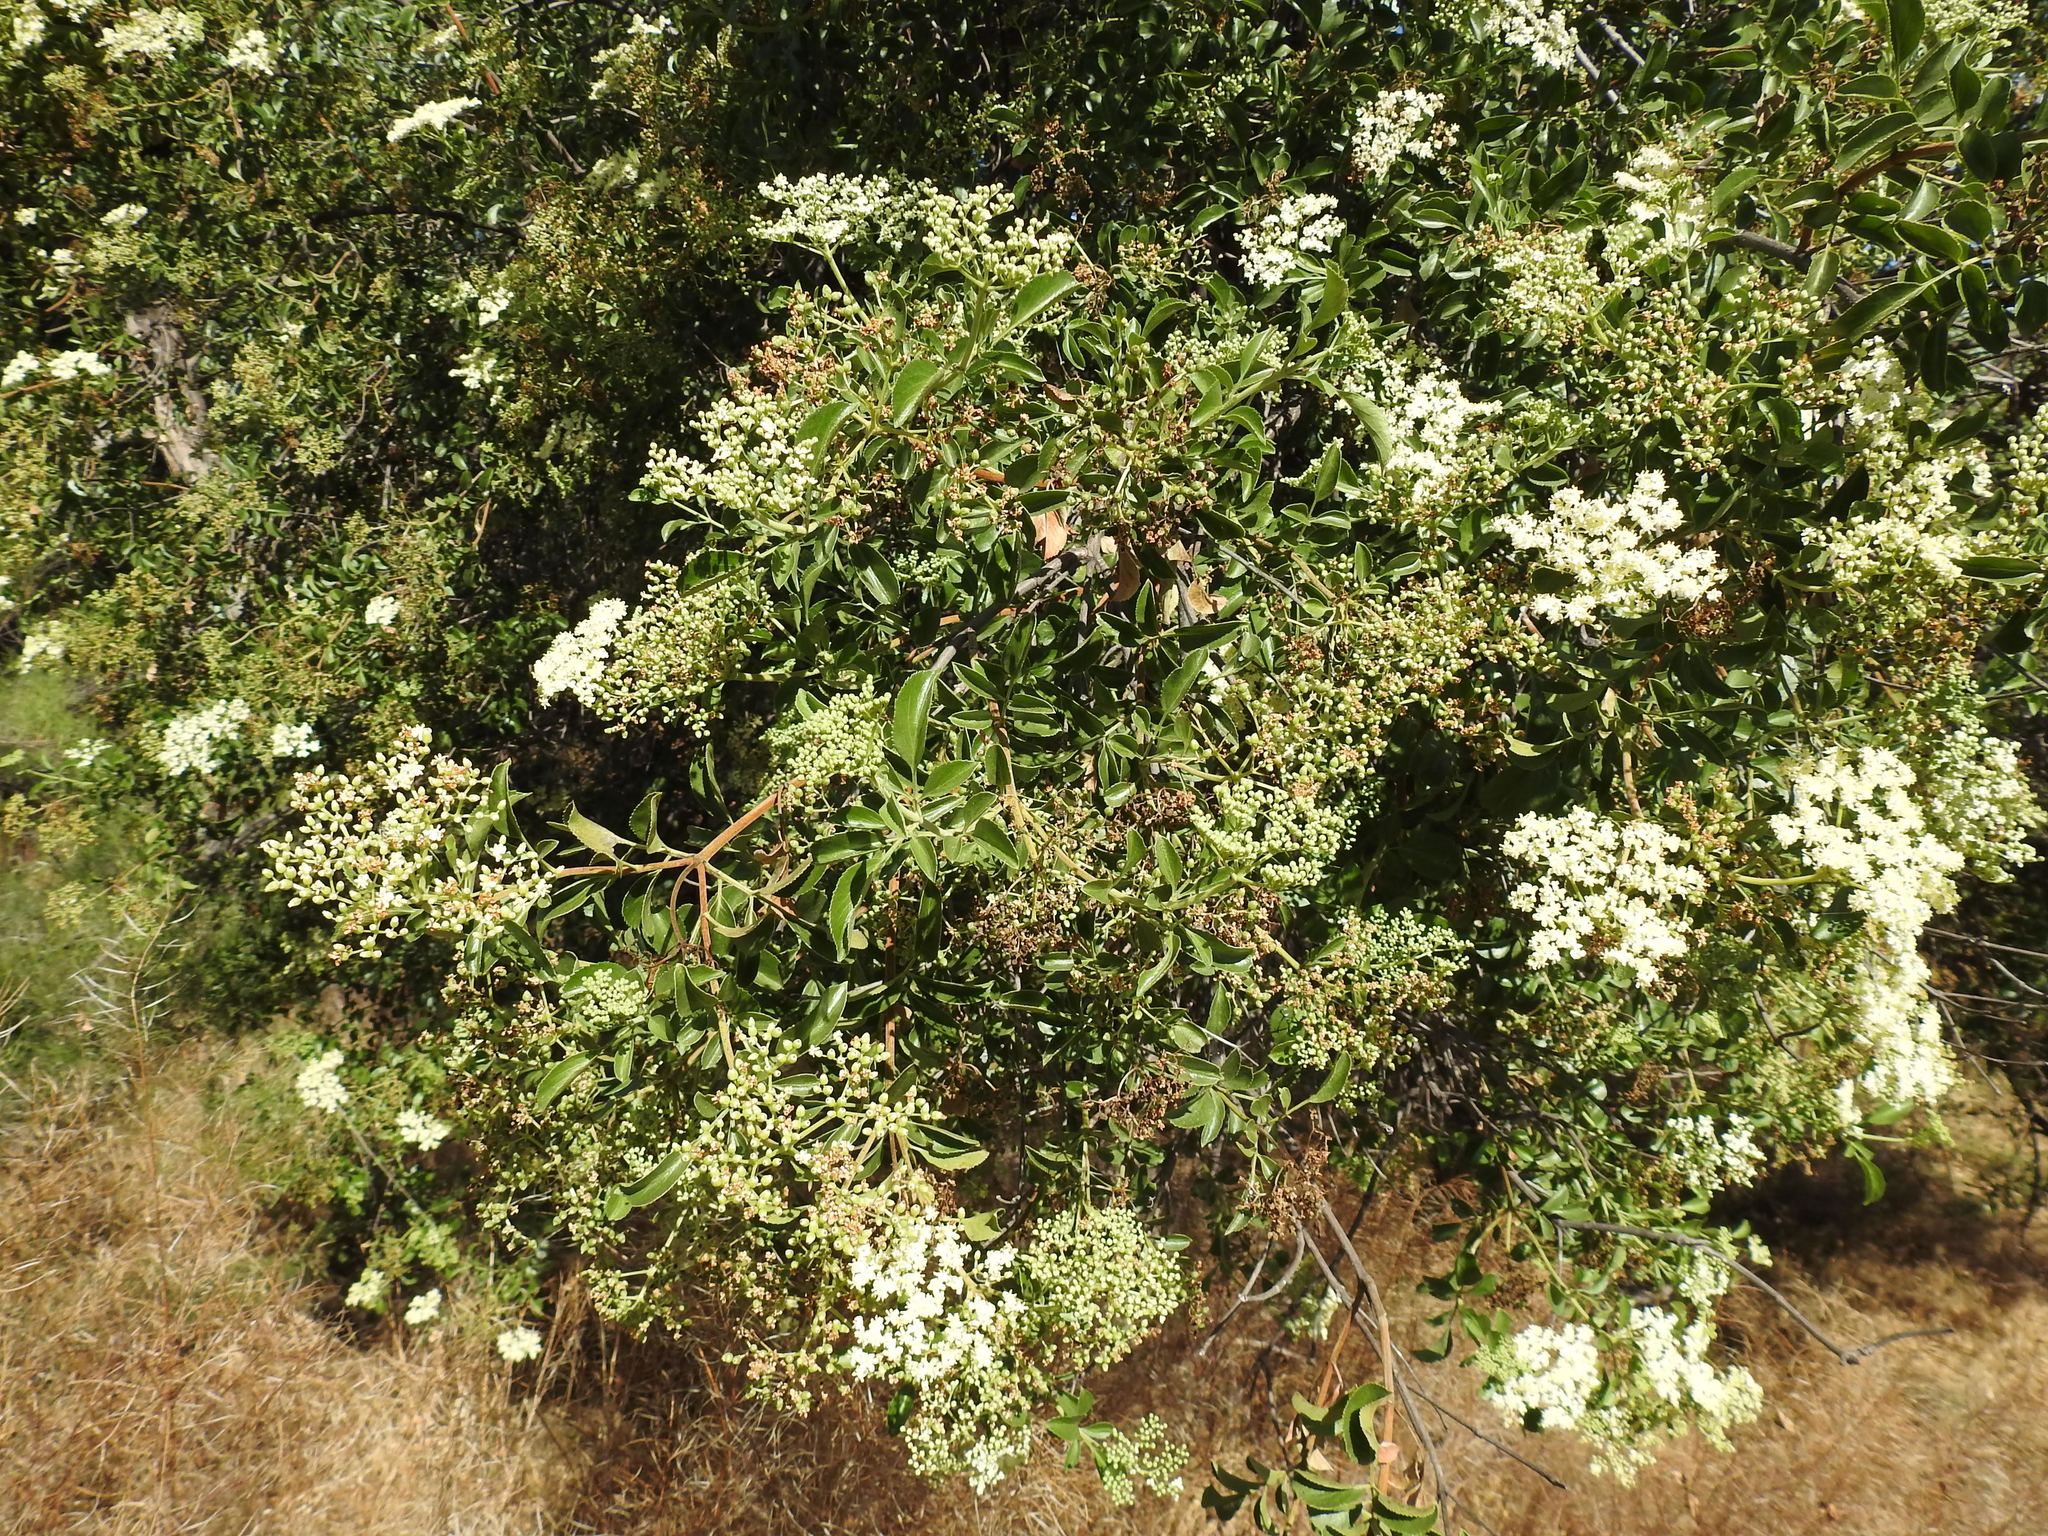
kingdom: Plantae
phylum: Tracheophyta
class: Magnoliopsida
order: Dipsacales
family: Viburnaceae
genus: Sambucus
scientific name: Sambucus cerulea
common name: Blue elder
